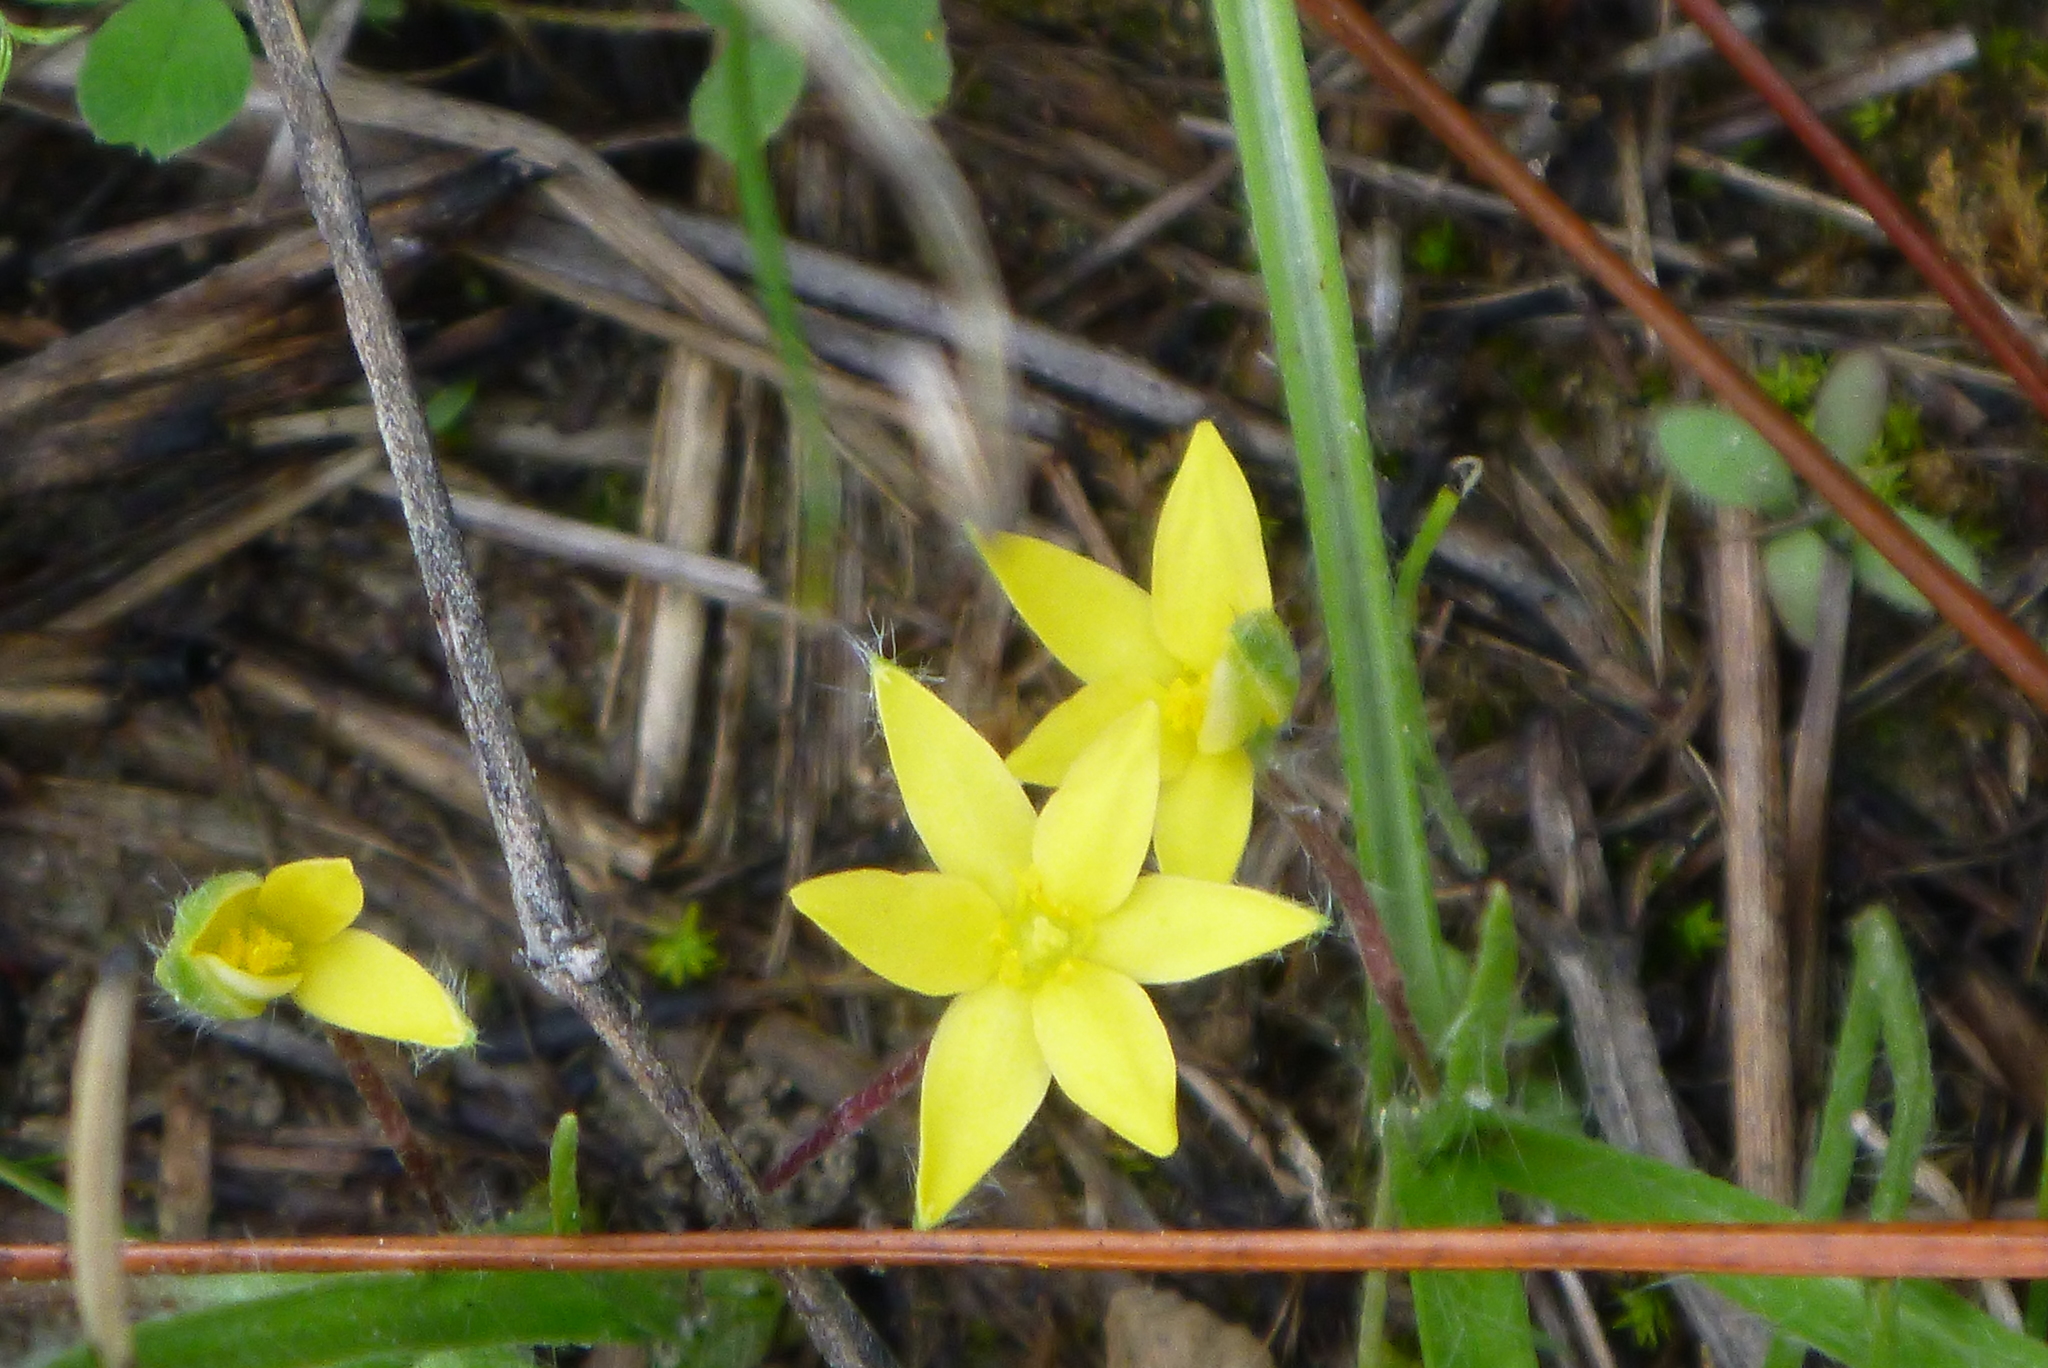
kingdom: Plantae
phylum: Tracheophyta
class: Liliopsida
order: Asparagales
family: Hypoxidaceae
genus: Hypoxis
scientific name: Hypoxis hirsuta
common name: Common goldstar
